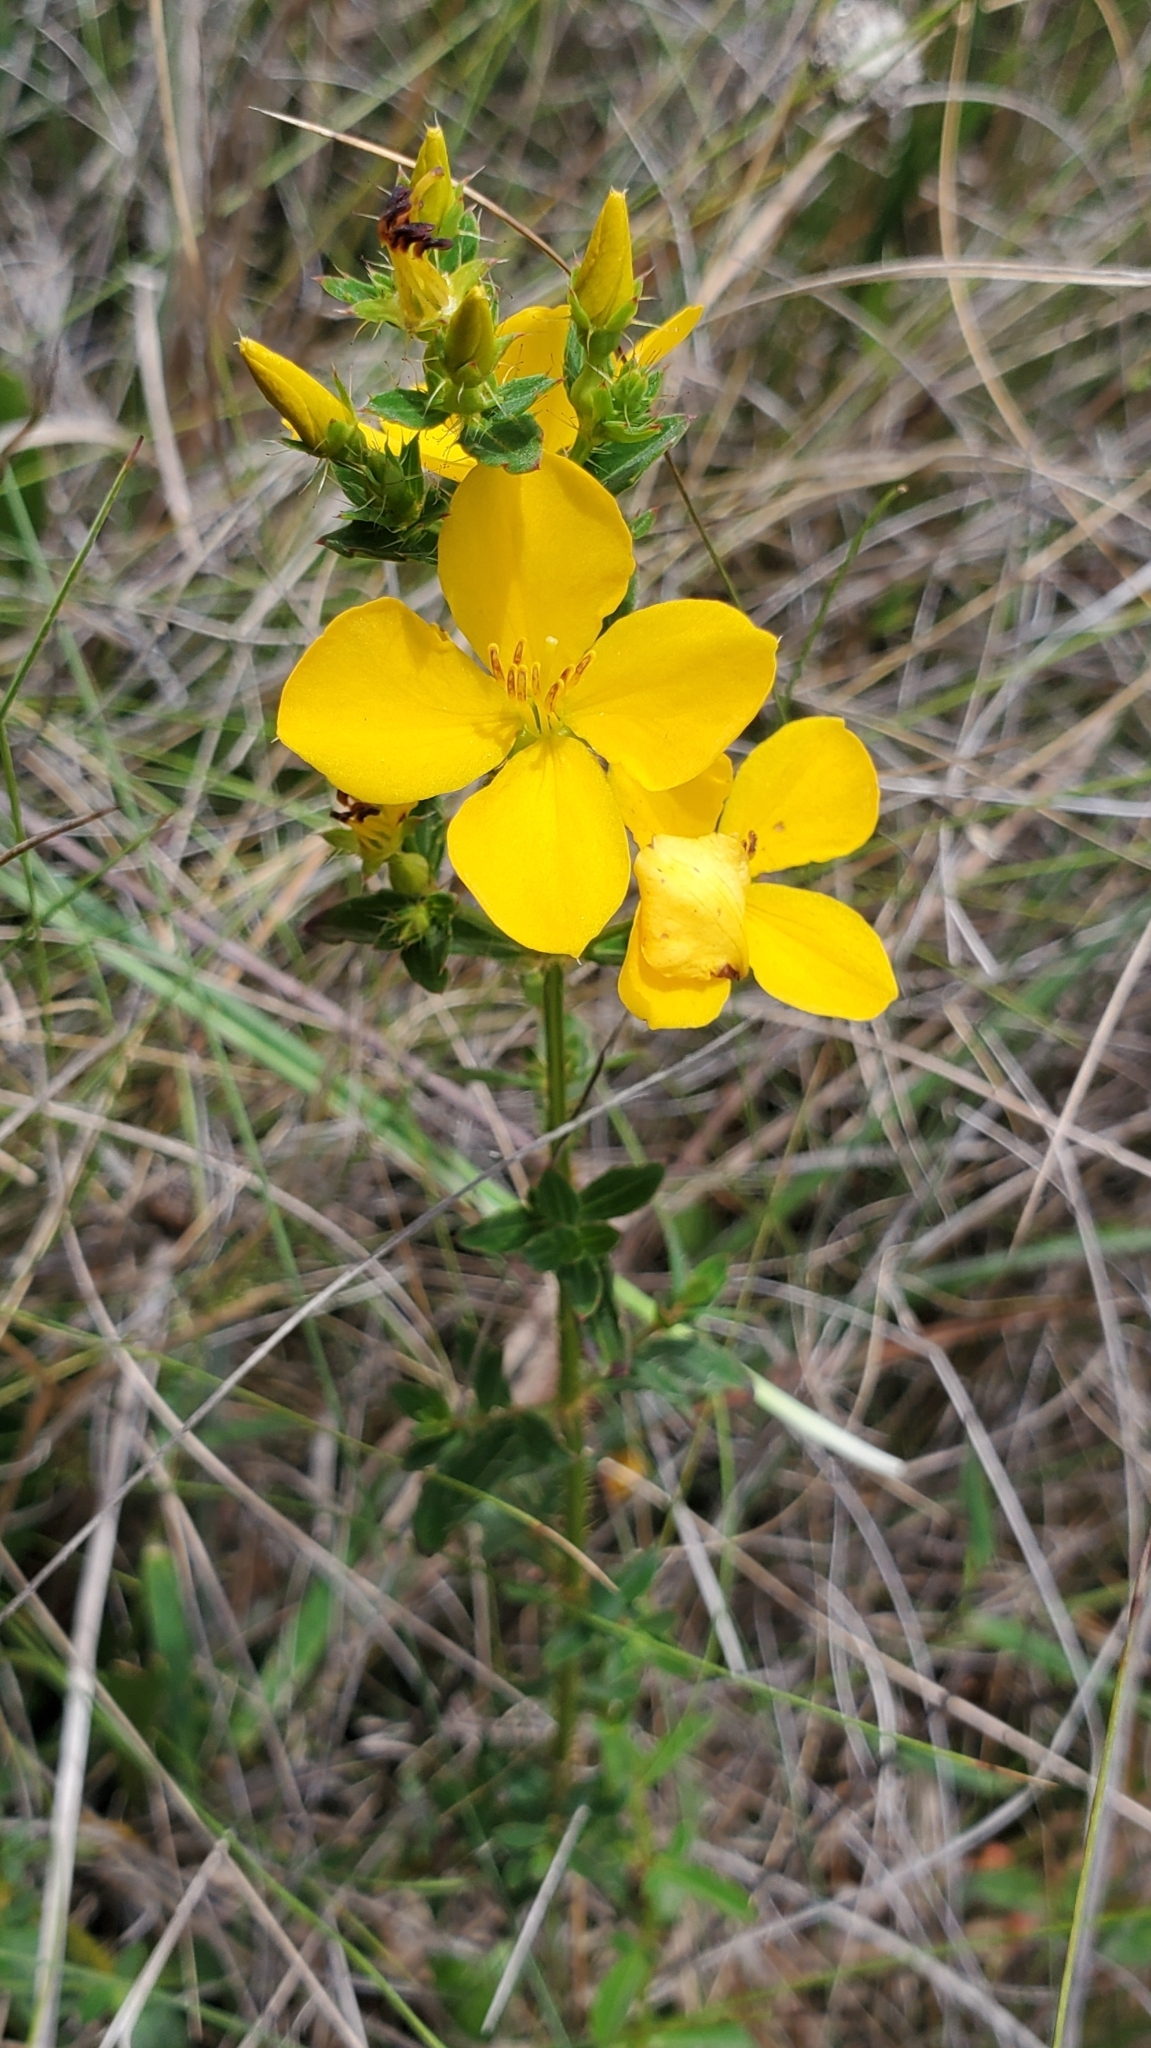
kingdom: Plantae
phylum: Tracheophyta
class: Magnoliopsida
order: Myrtales
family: Melastomataceae
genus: Rhexia
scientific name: Rhexia lutea
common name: Golden meadow-beauty
